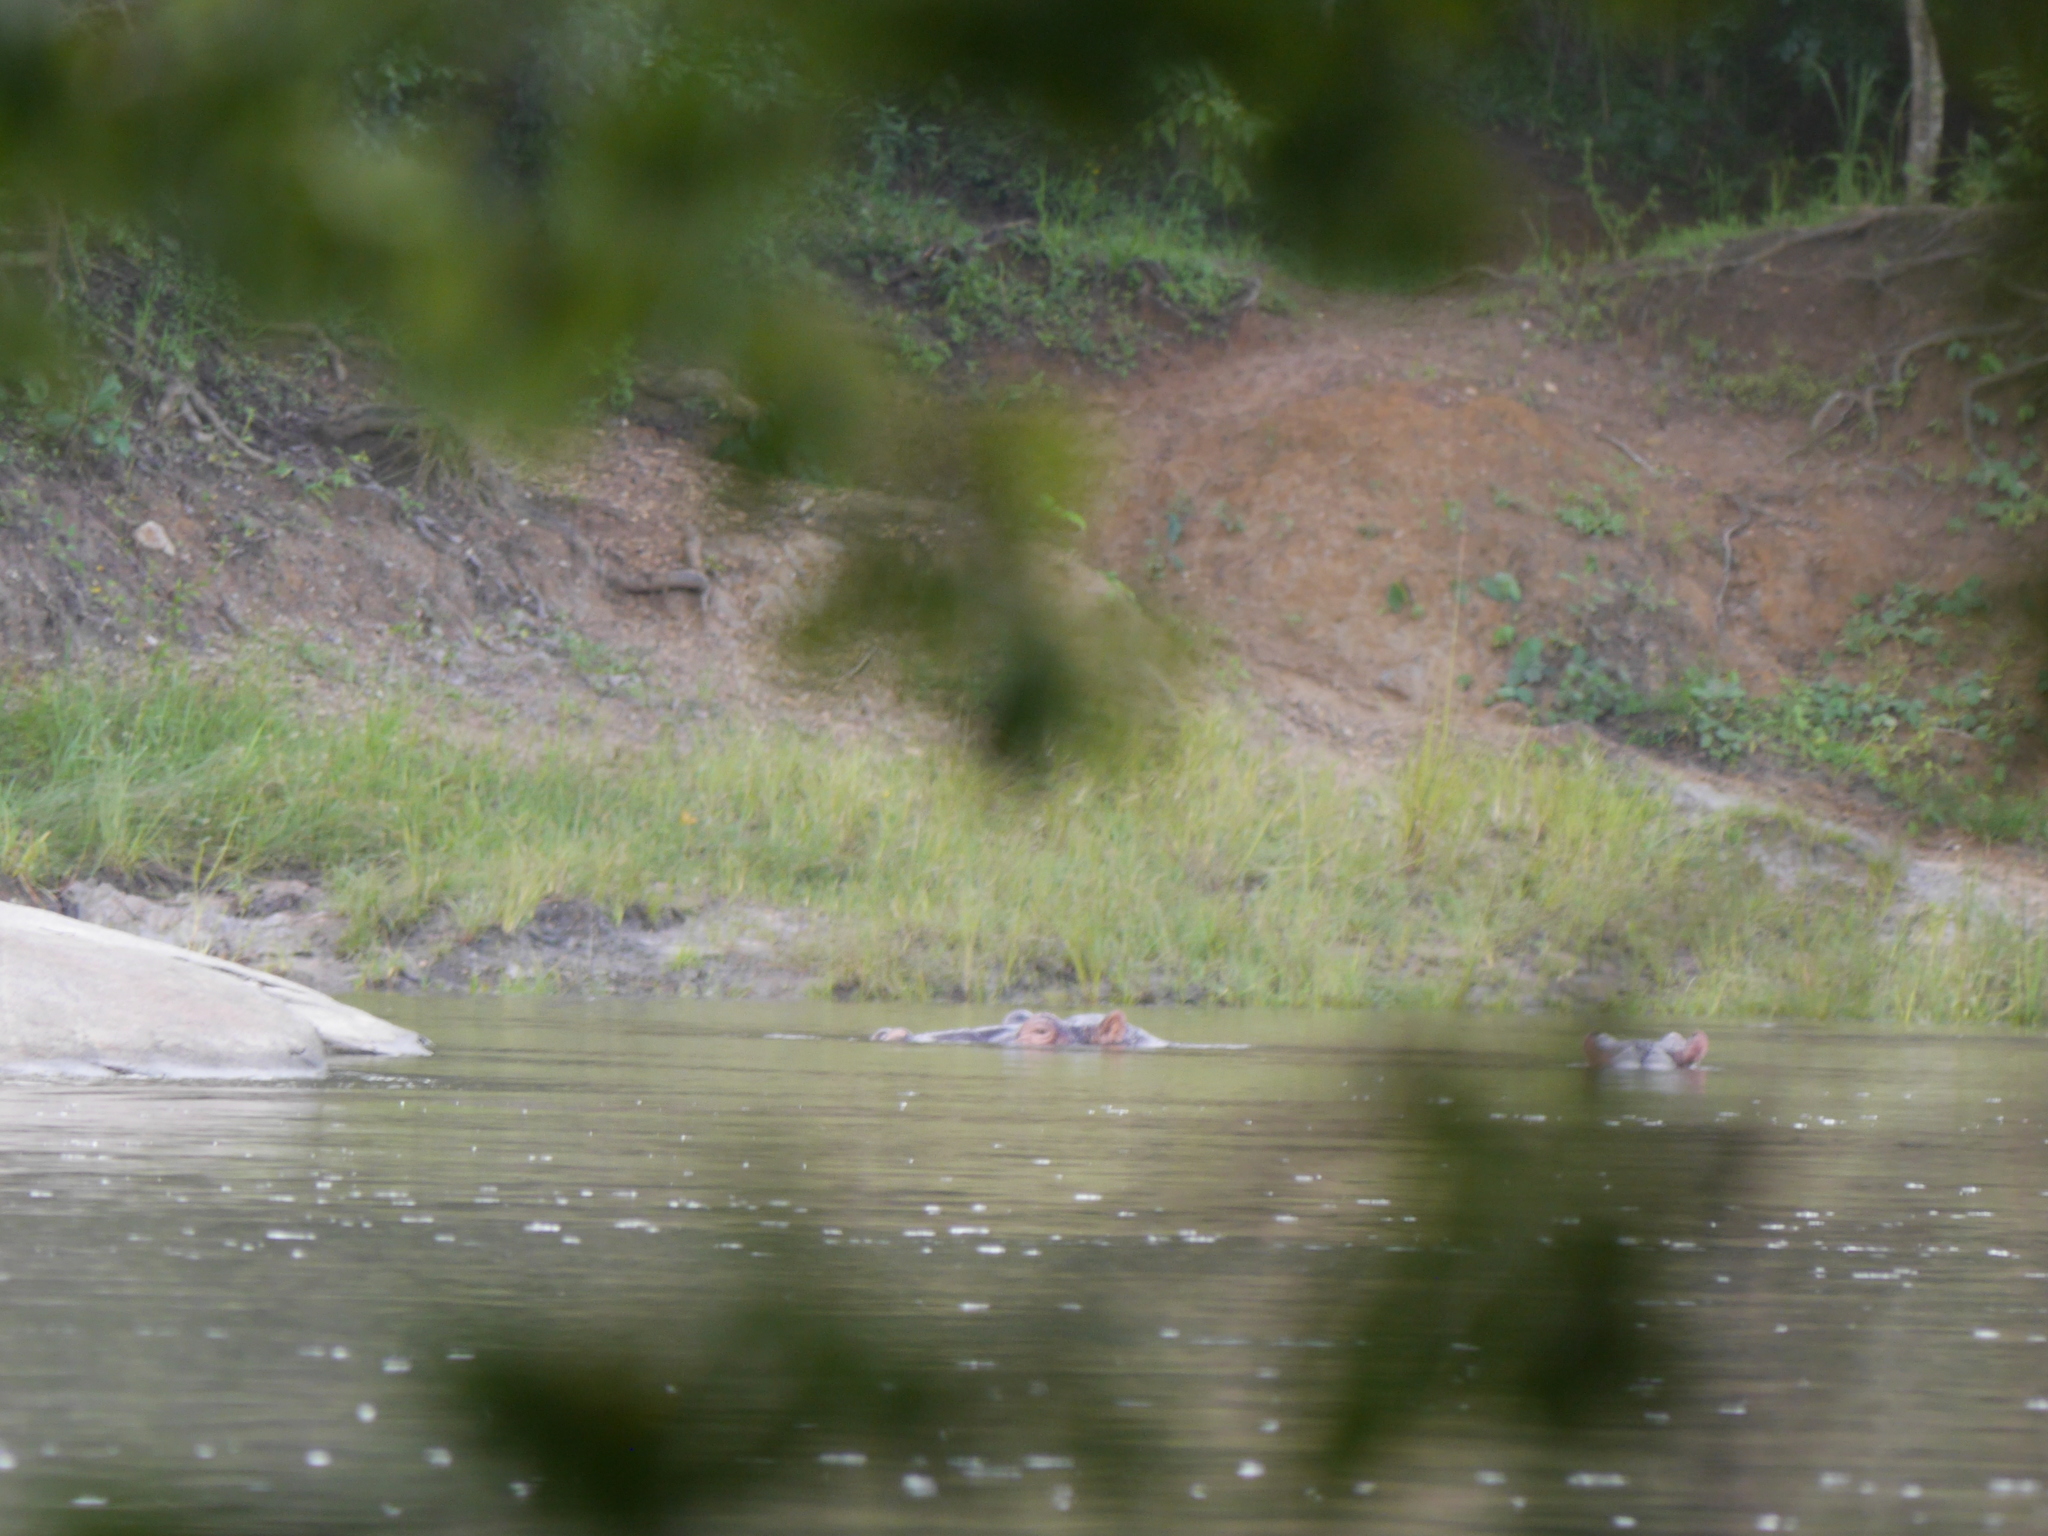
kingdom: Animalia
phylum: Chordata
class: Mammalia
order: Artiodactyla
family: Hippopotamidae
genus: Hippopotamus
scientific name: Hippopotamus amphibius
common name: Common hippopotamus
